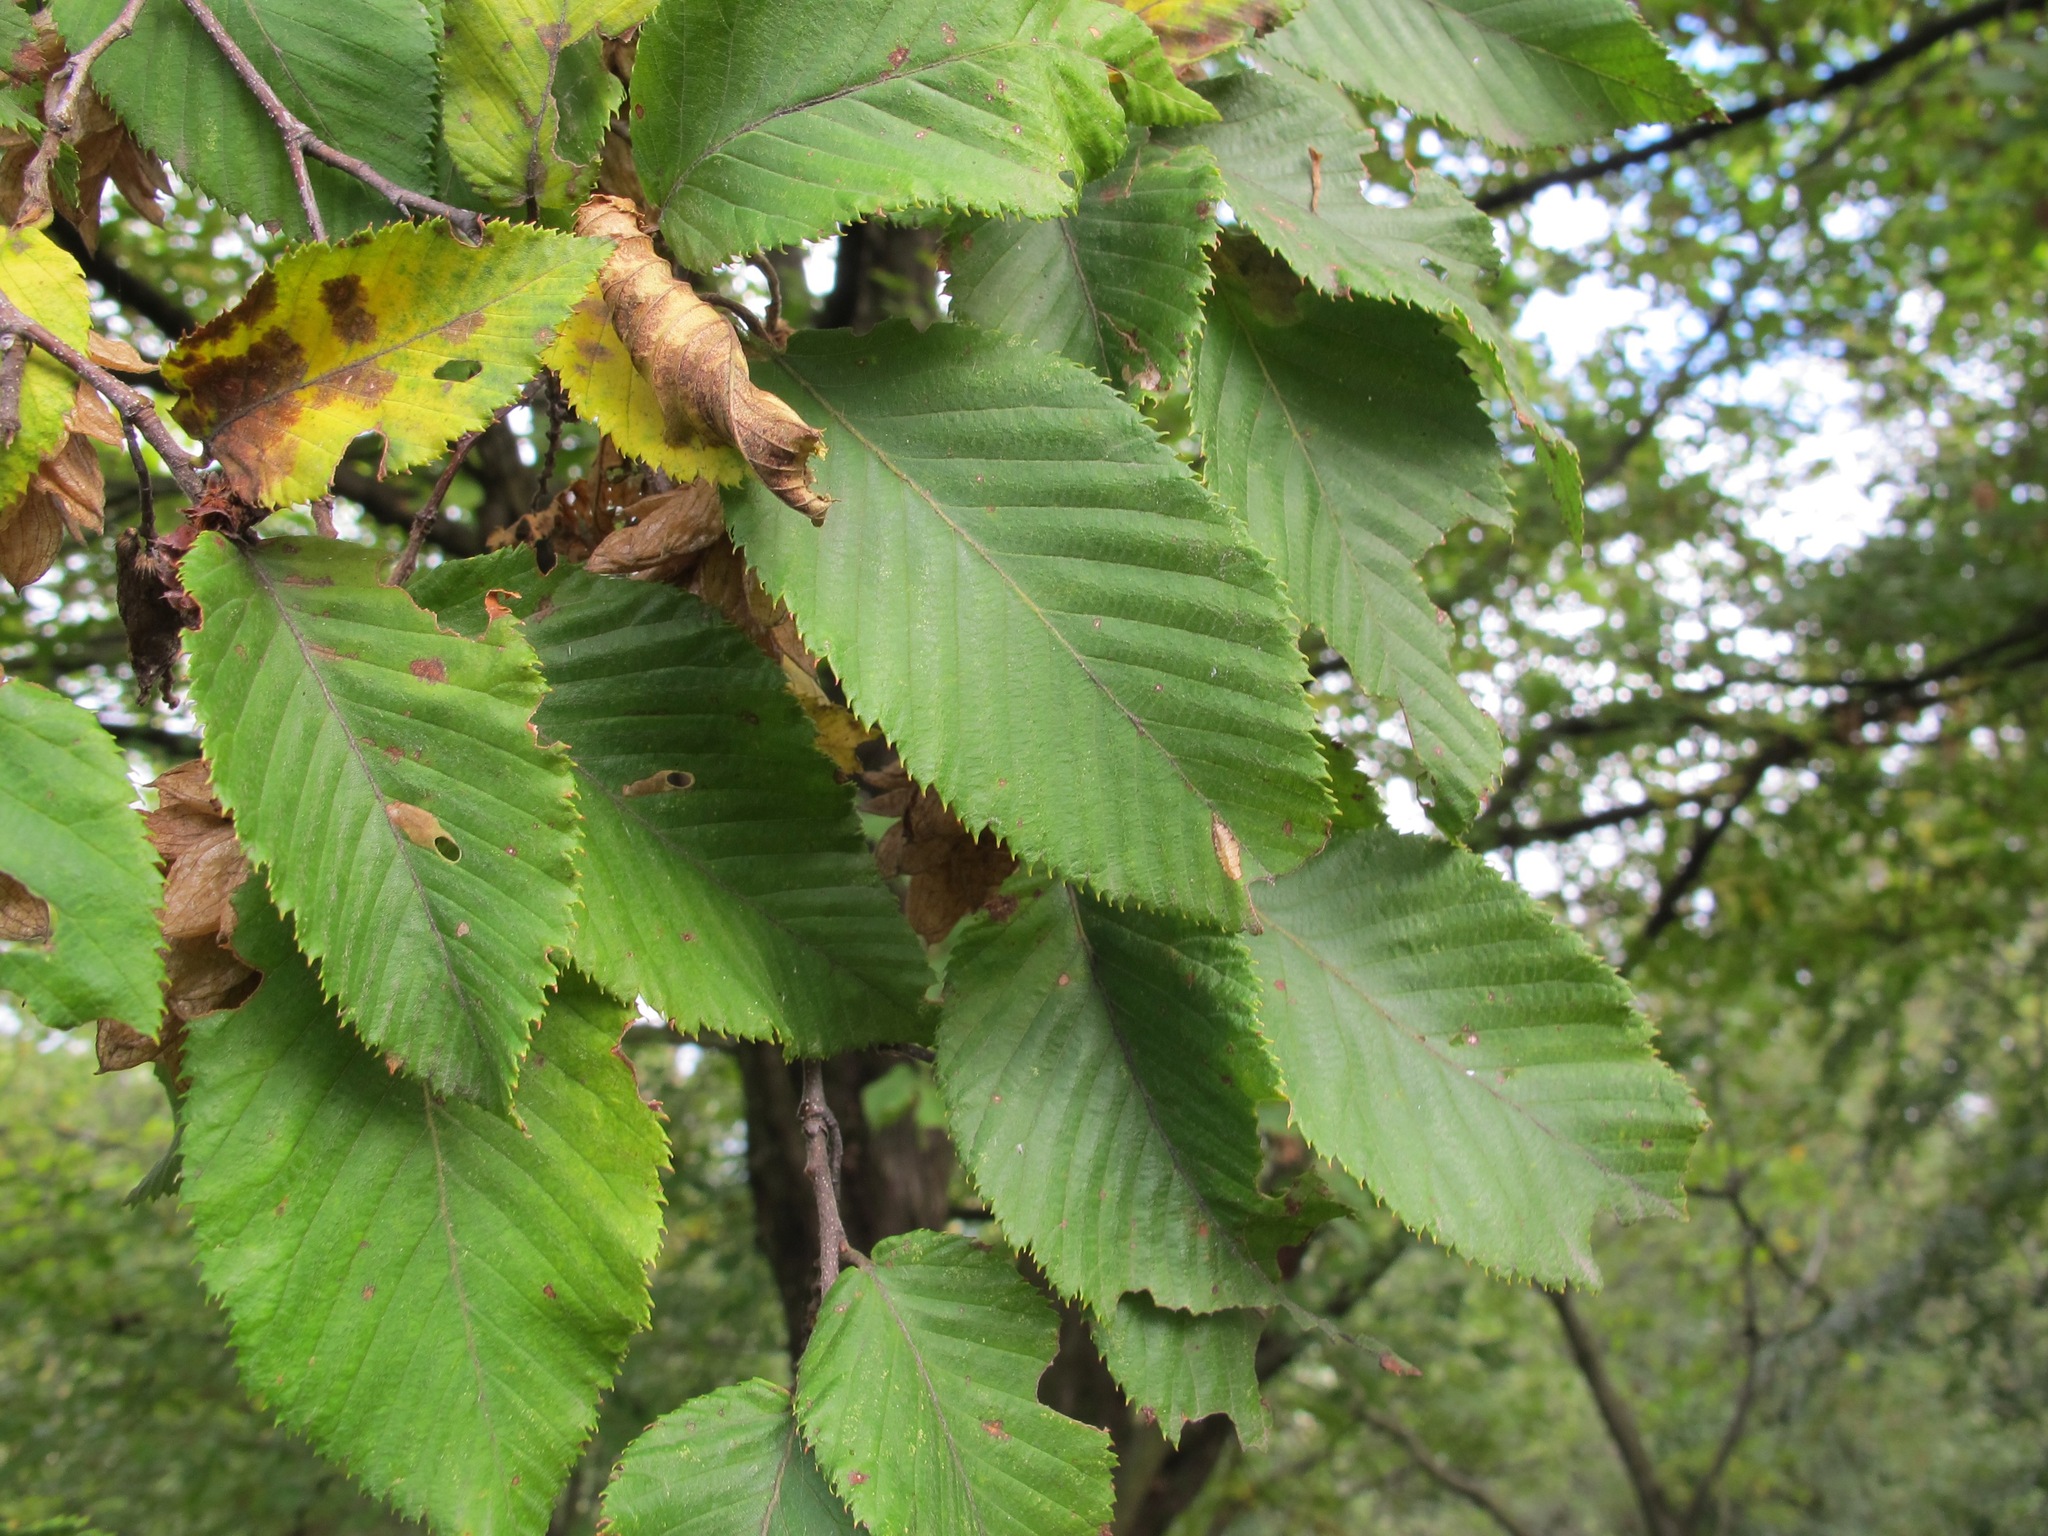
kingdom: Plantae
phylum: Tracheophyta
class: Magnoliopsida
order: Fagales
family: Betulaceae
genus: Ostrya
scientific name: Ostrya carpinifolia
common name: European hop-hornbeam
